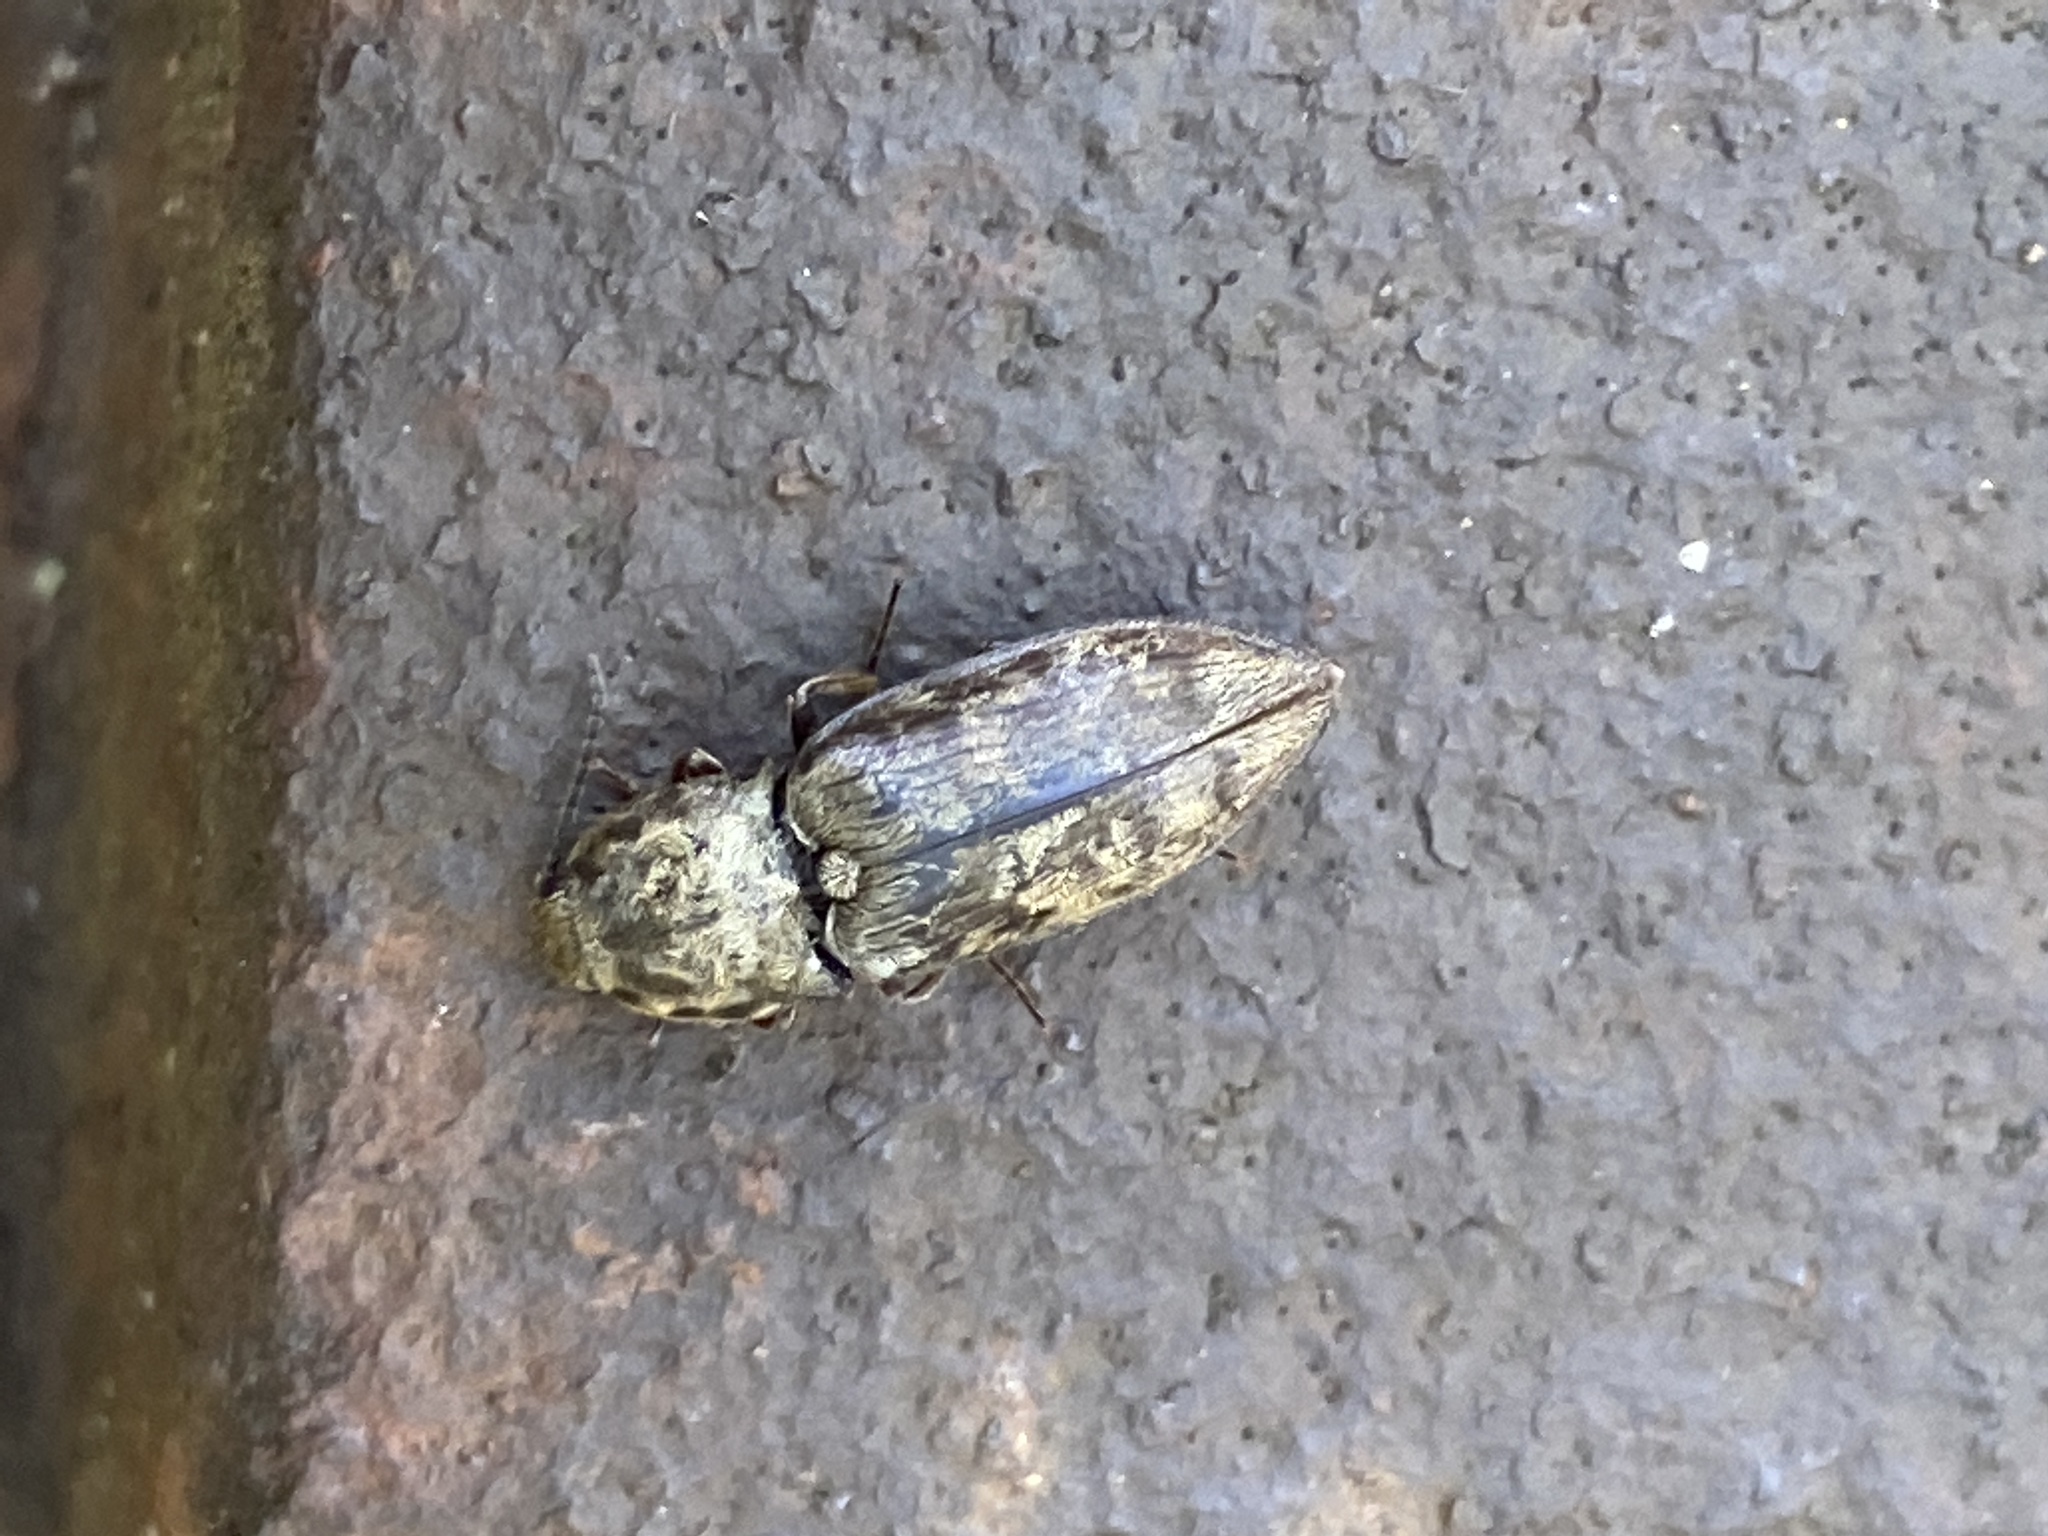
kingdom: Animalia
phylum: Arthropoda
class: Insecta
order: Coleoptera
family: Elateridae
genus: Prosternon
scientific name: Prosternon tessellatum
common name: Chequered click beetle
